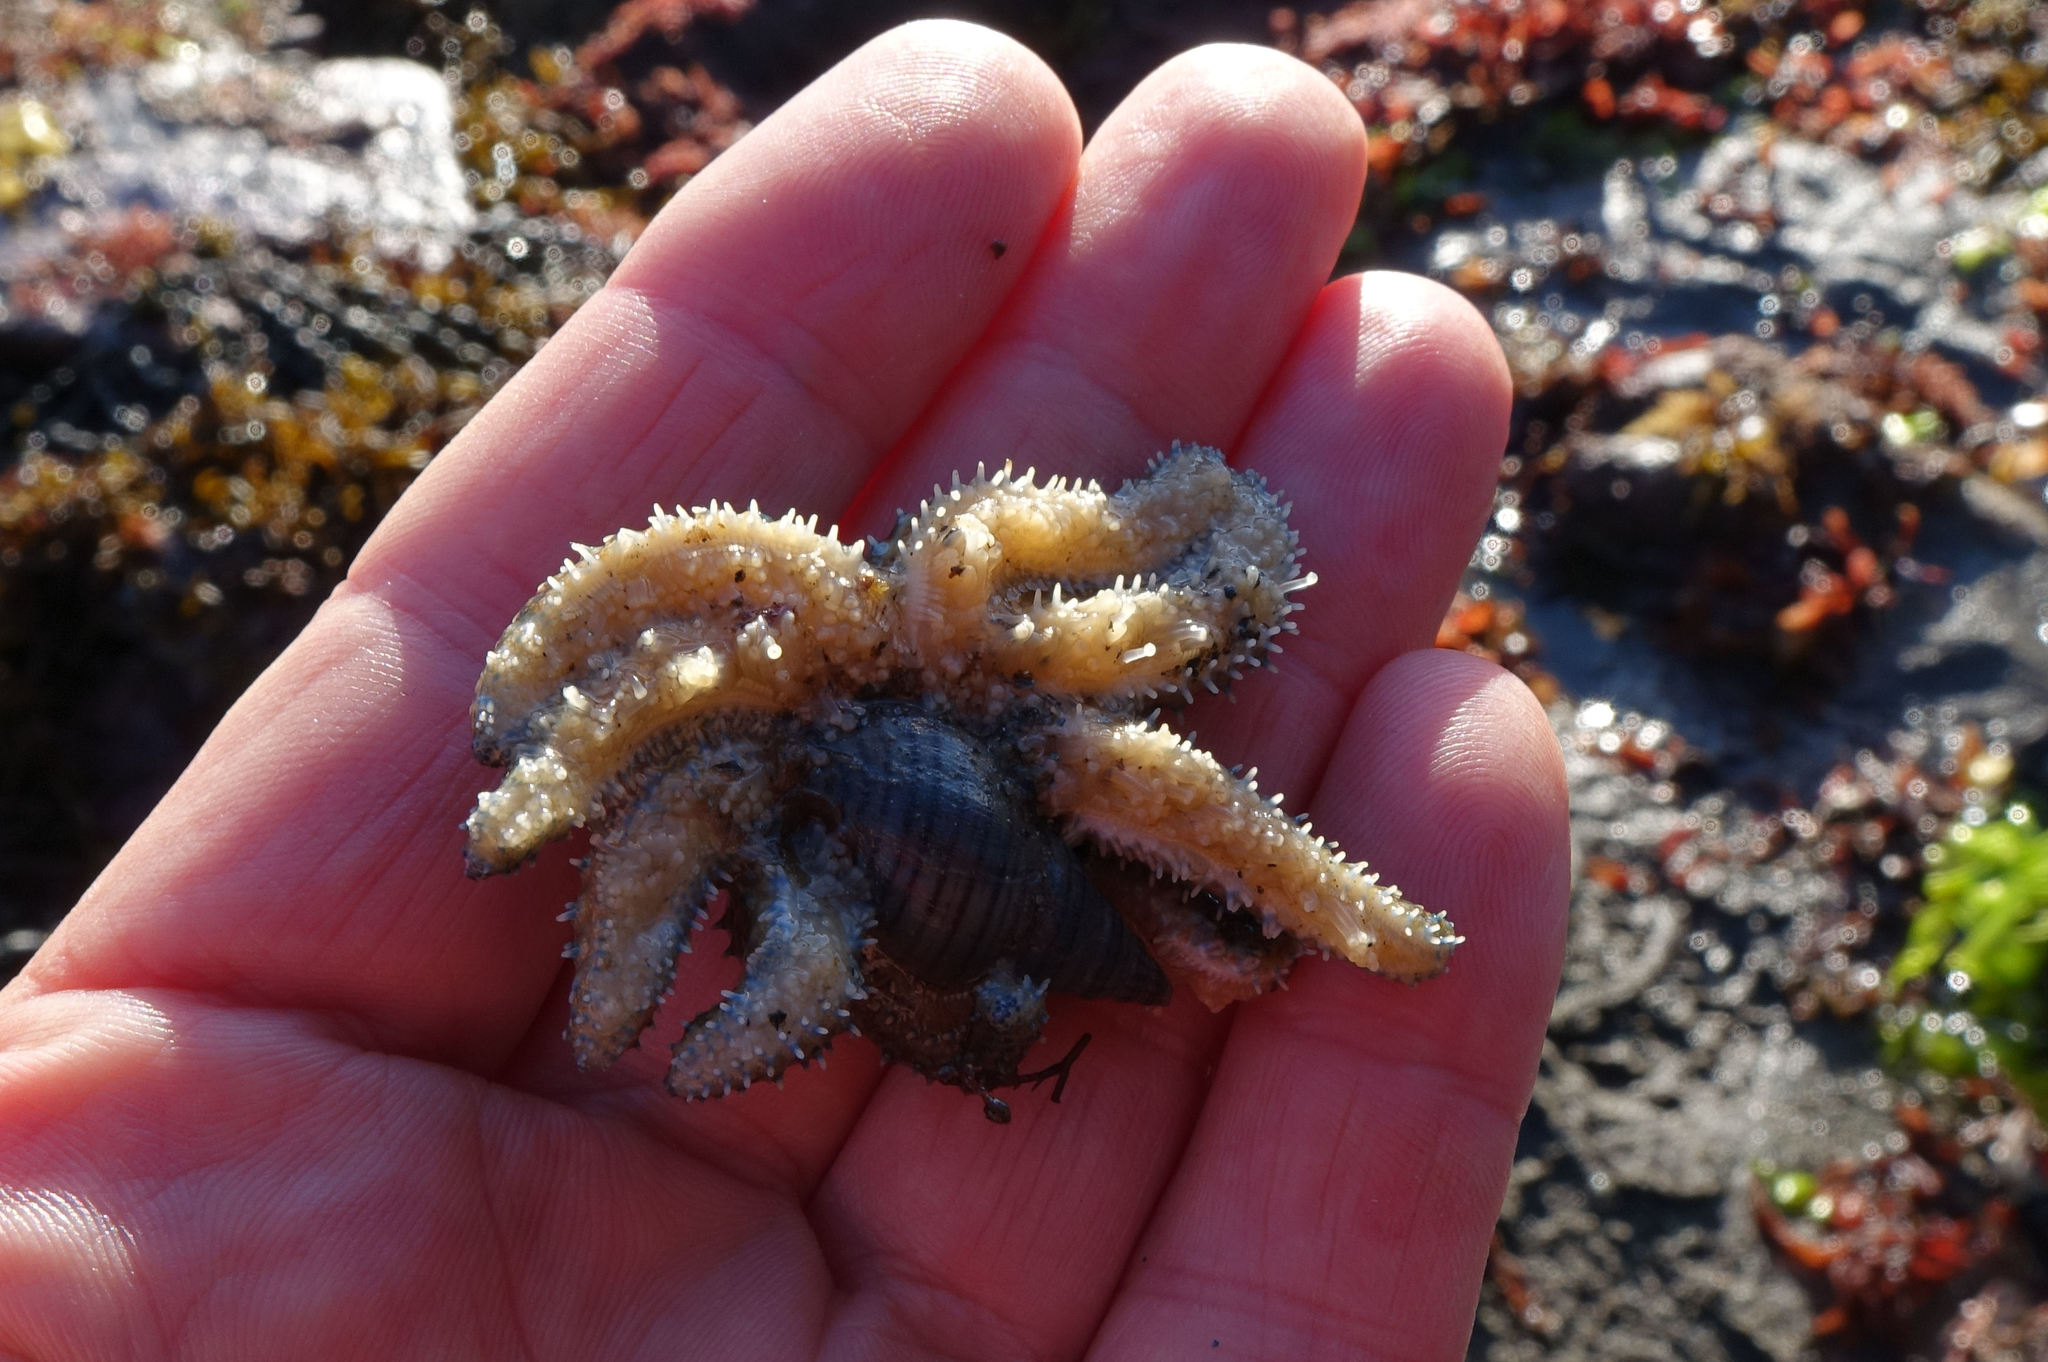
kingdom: Animalia
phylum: Echinodermata
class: Asteroidea
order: Forcipulatida
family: Asteriidae
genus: Coscinasterias
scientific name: Coscinasterias muricata
